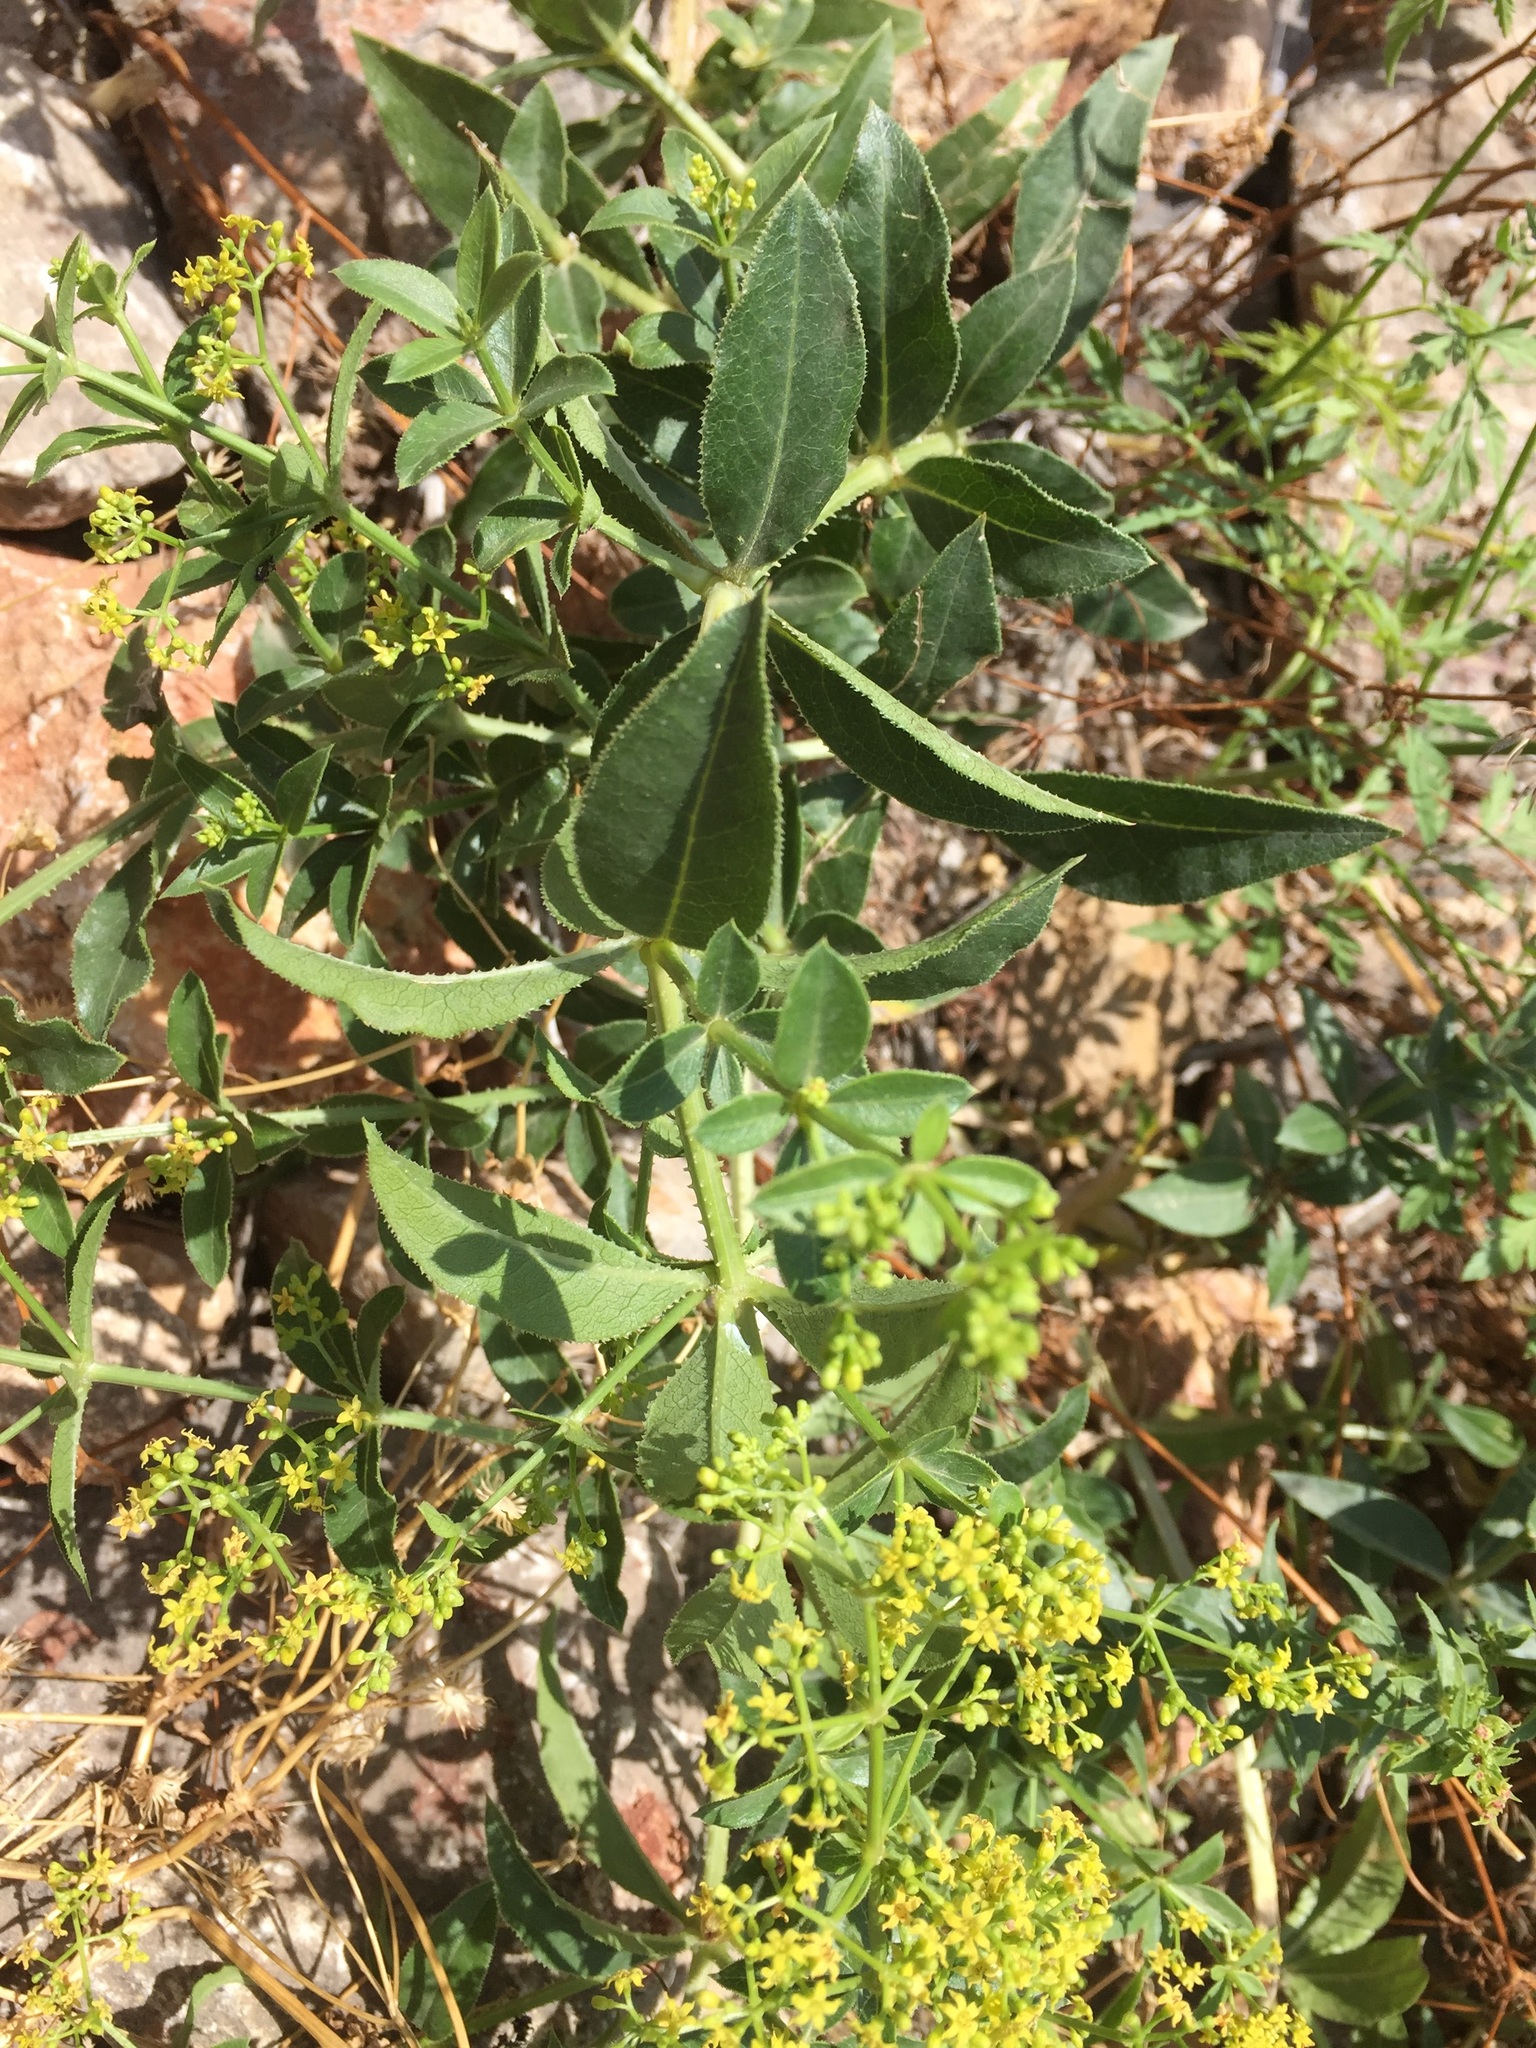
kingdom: Plantae
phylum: Tracheophyta
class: Magnoliopsida
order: Gentianales
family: Rubiaceae
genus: Rubia
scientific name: Rubia tinctorum
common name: Dyer's madder
